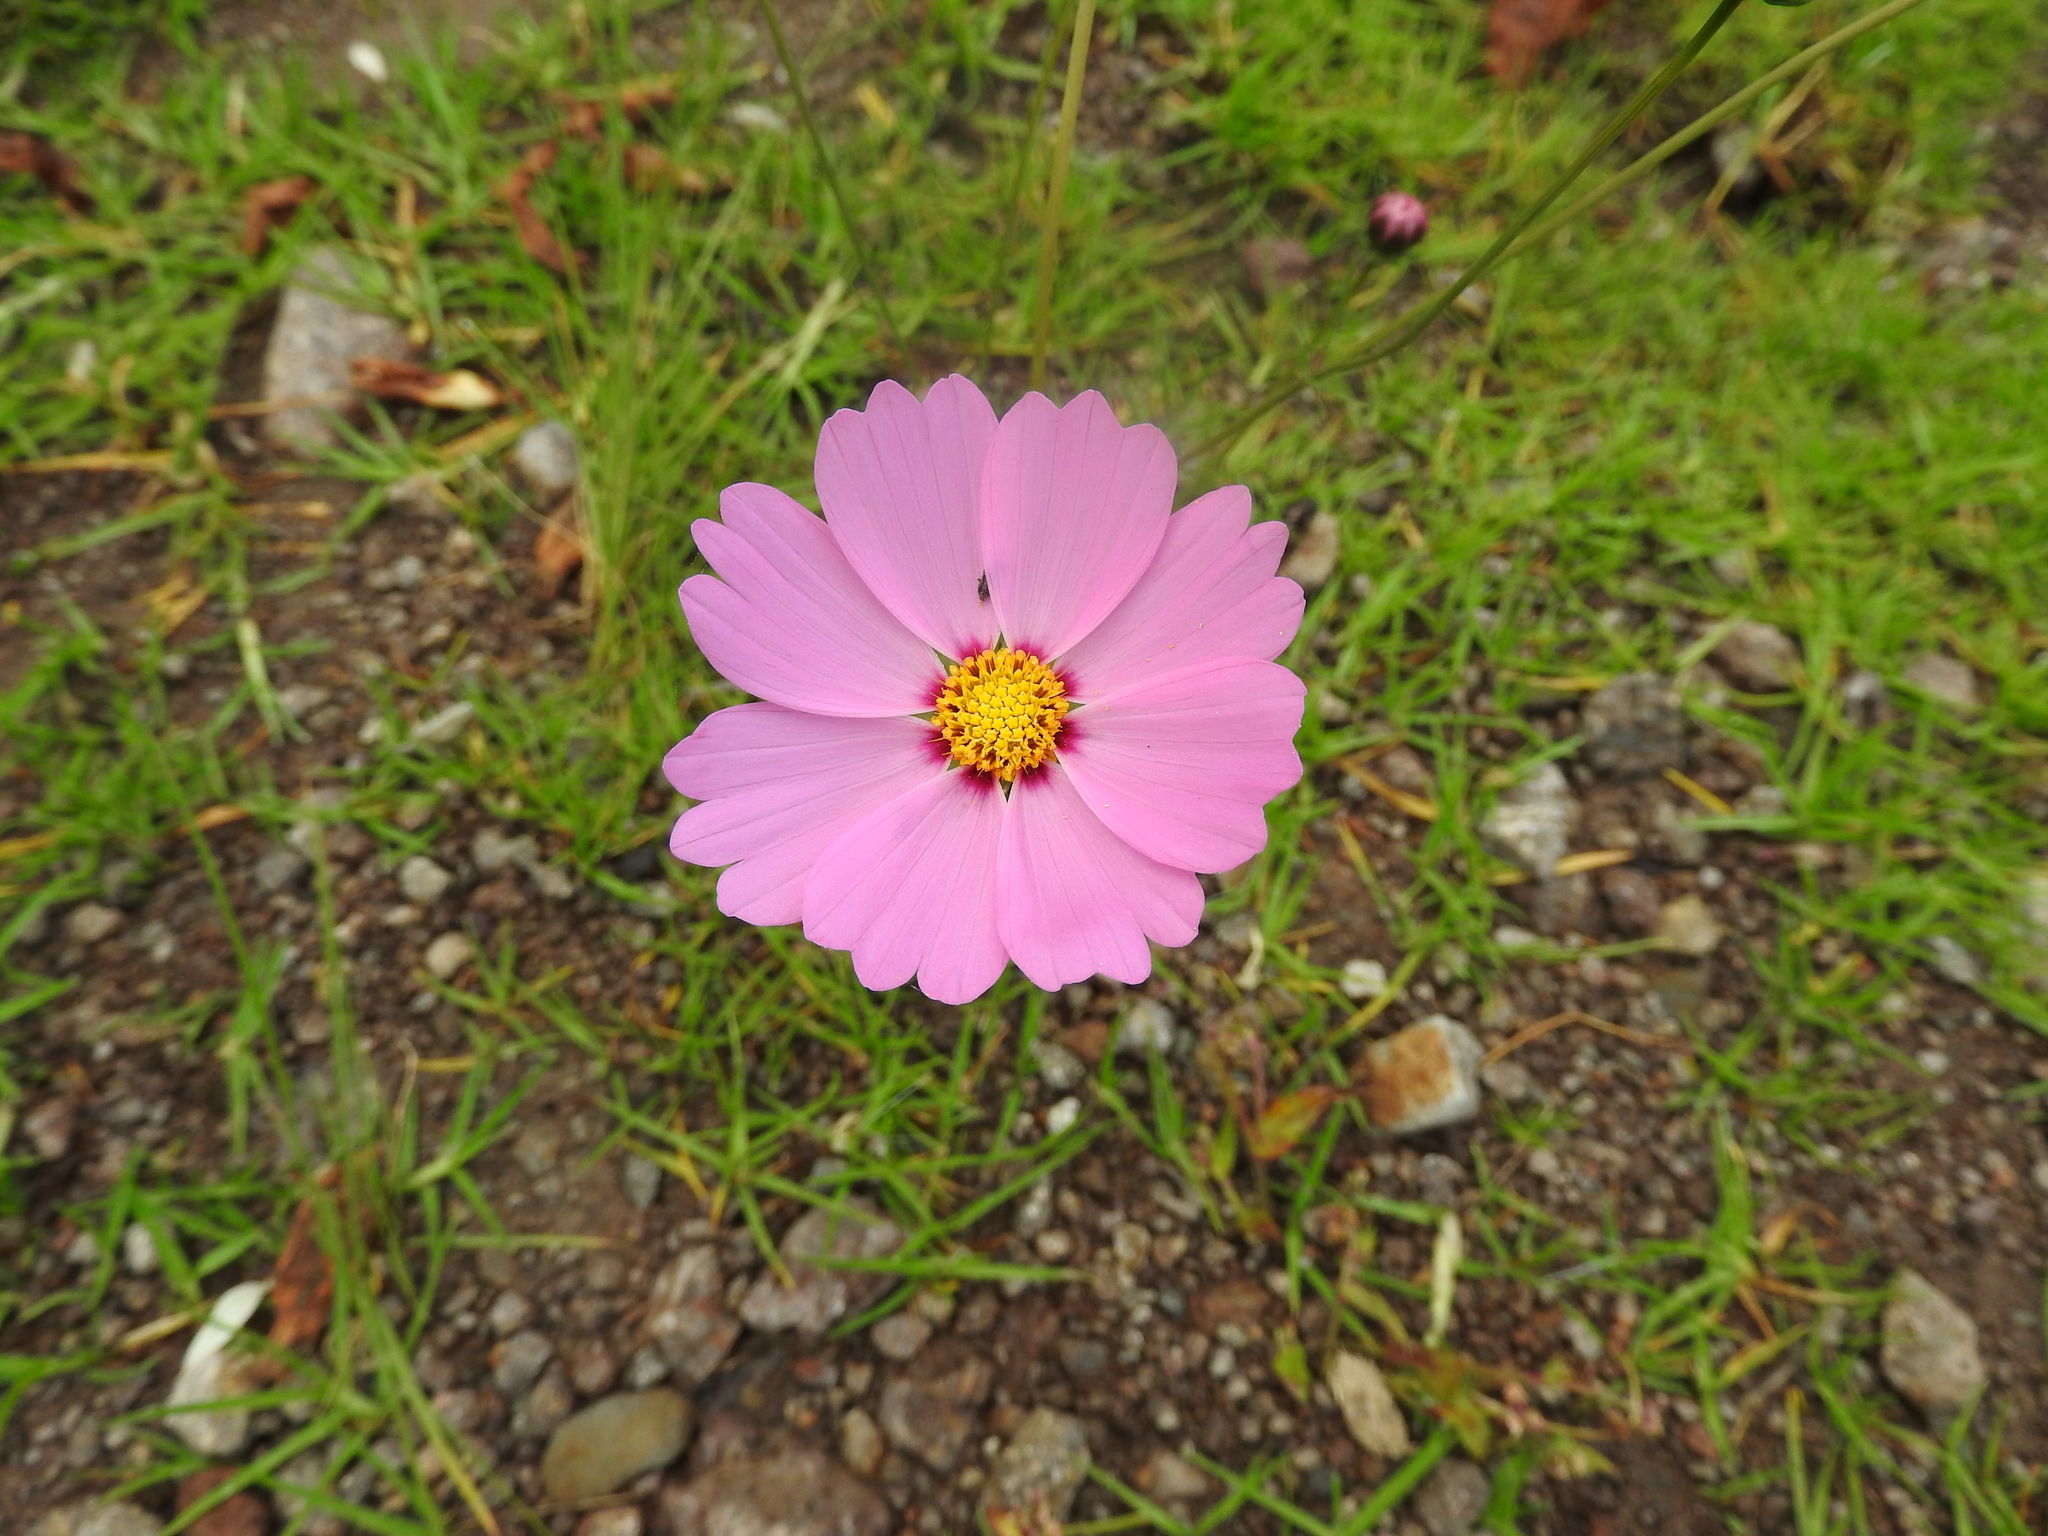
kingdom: Plantae
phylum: Tracheophyta
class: Magnoliopsida
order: Asterales
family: Asteraceae
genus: Cosmos
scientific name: Cosmos bipinnatus
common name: Garden cosmos
